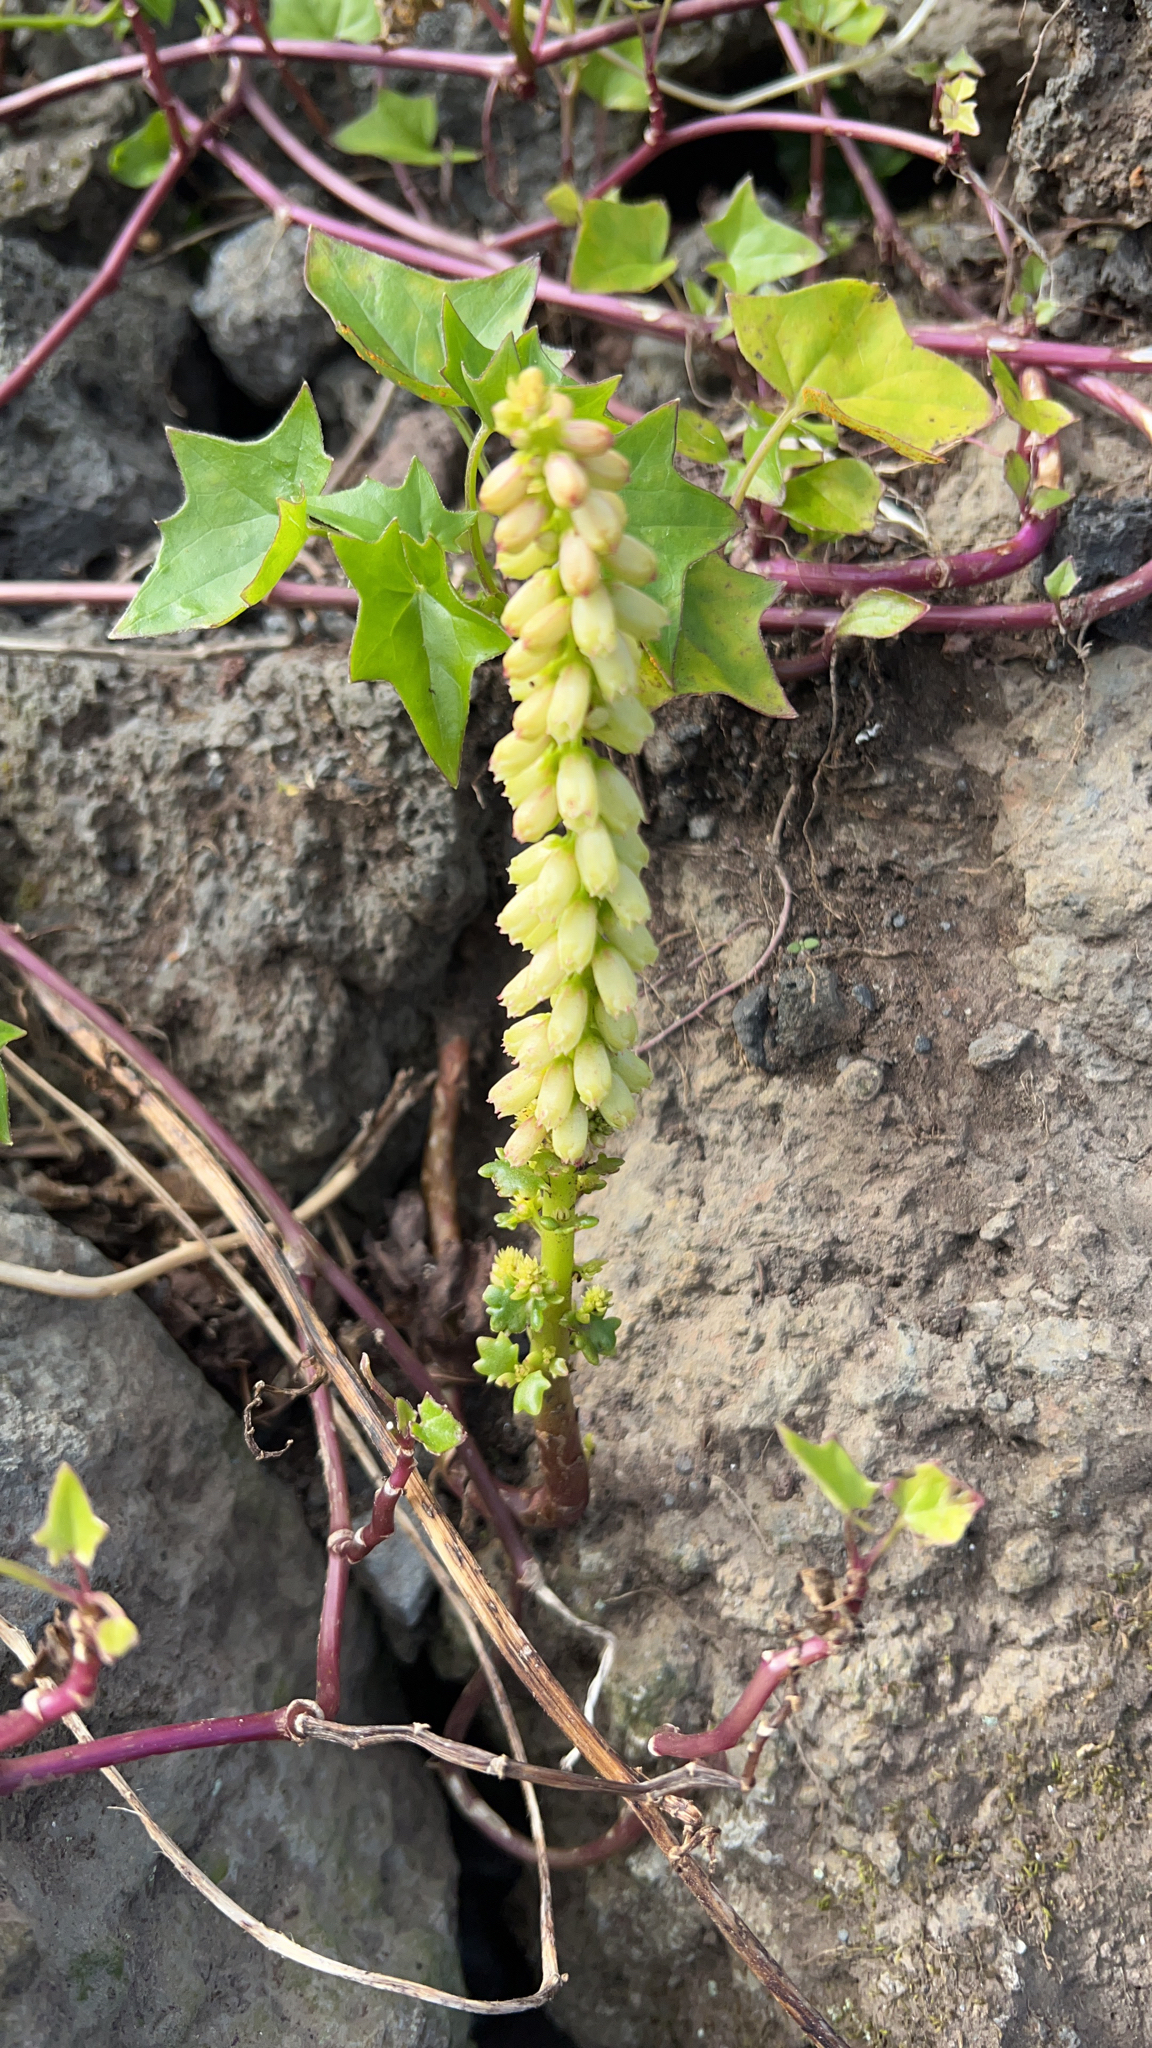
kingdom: Plantae
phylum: Tracheophyta
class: Magnoliopsida
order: Saxifragales
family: Crassulaceae
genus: Umbilicus
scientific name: Umbilicus rupestris
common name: Navelwort
